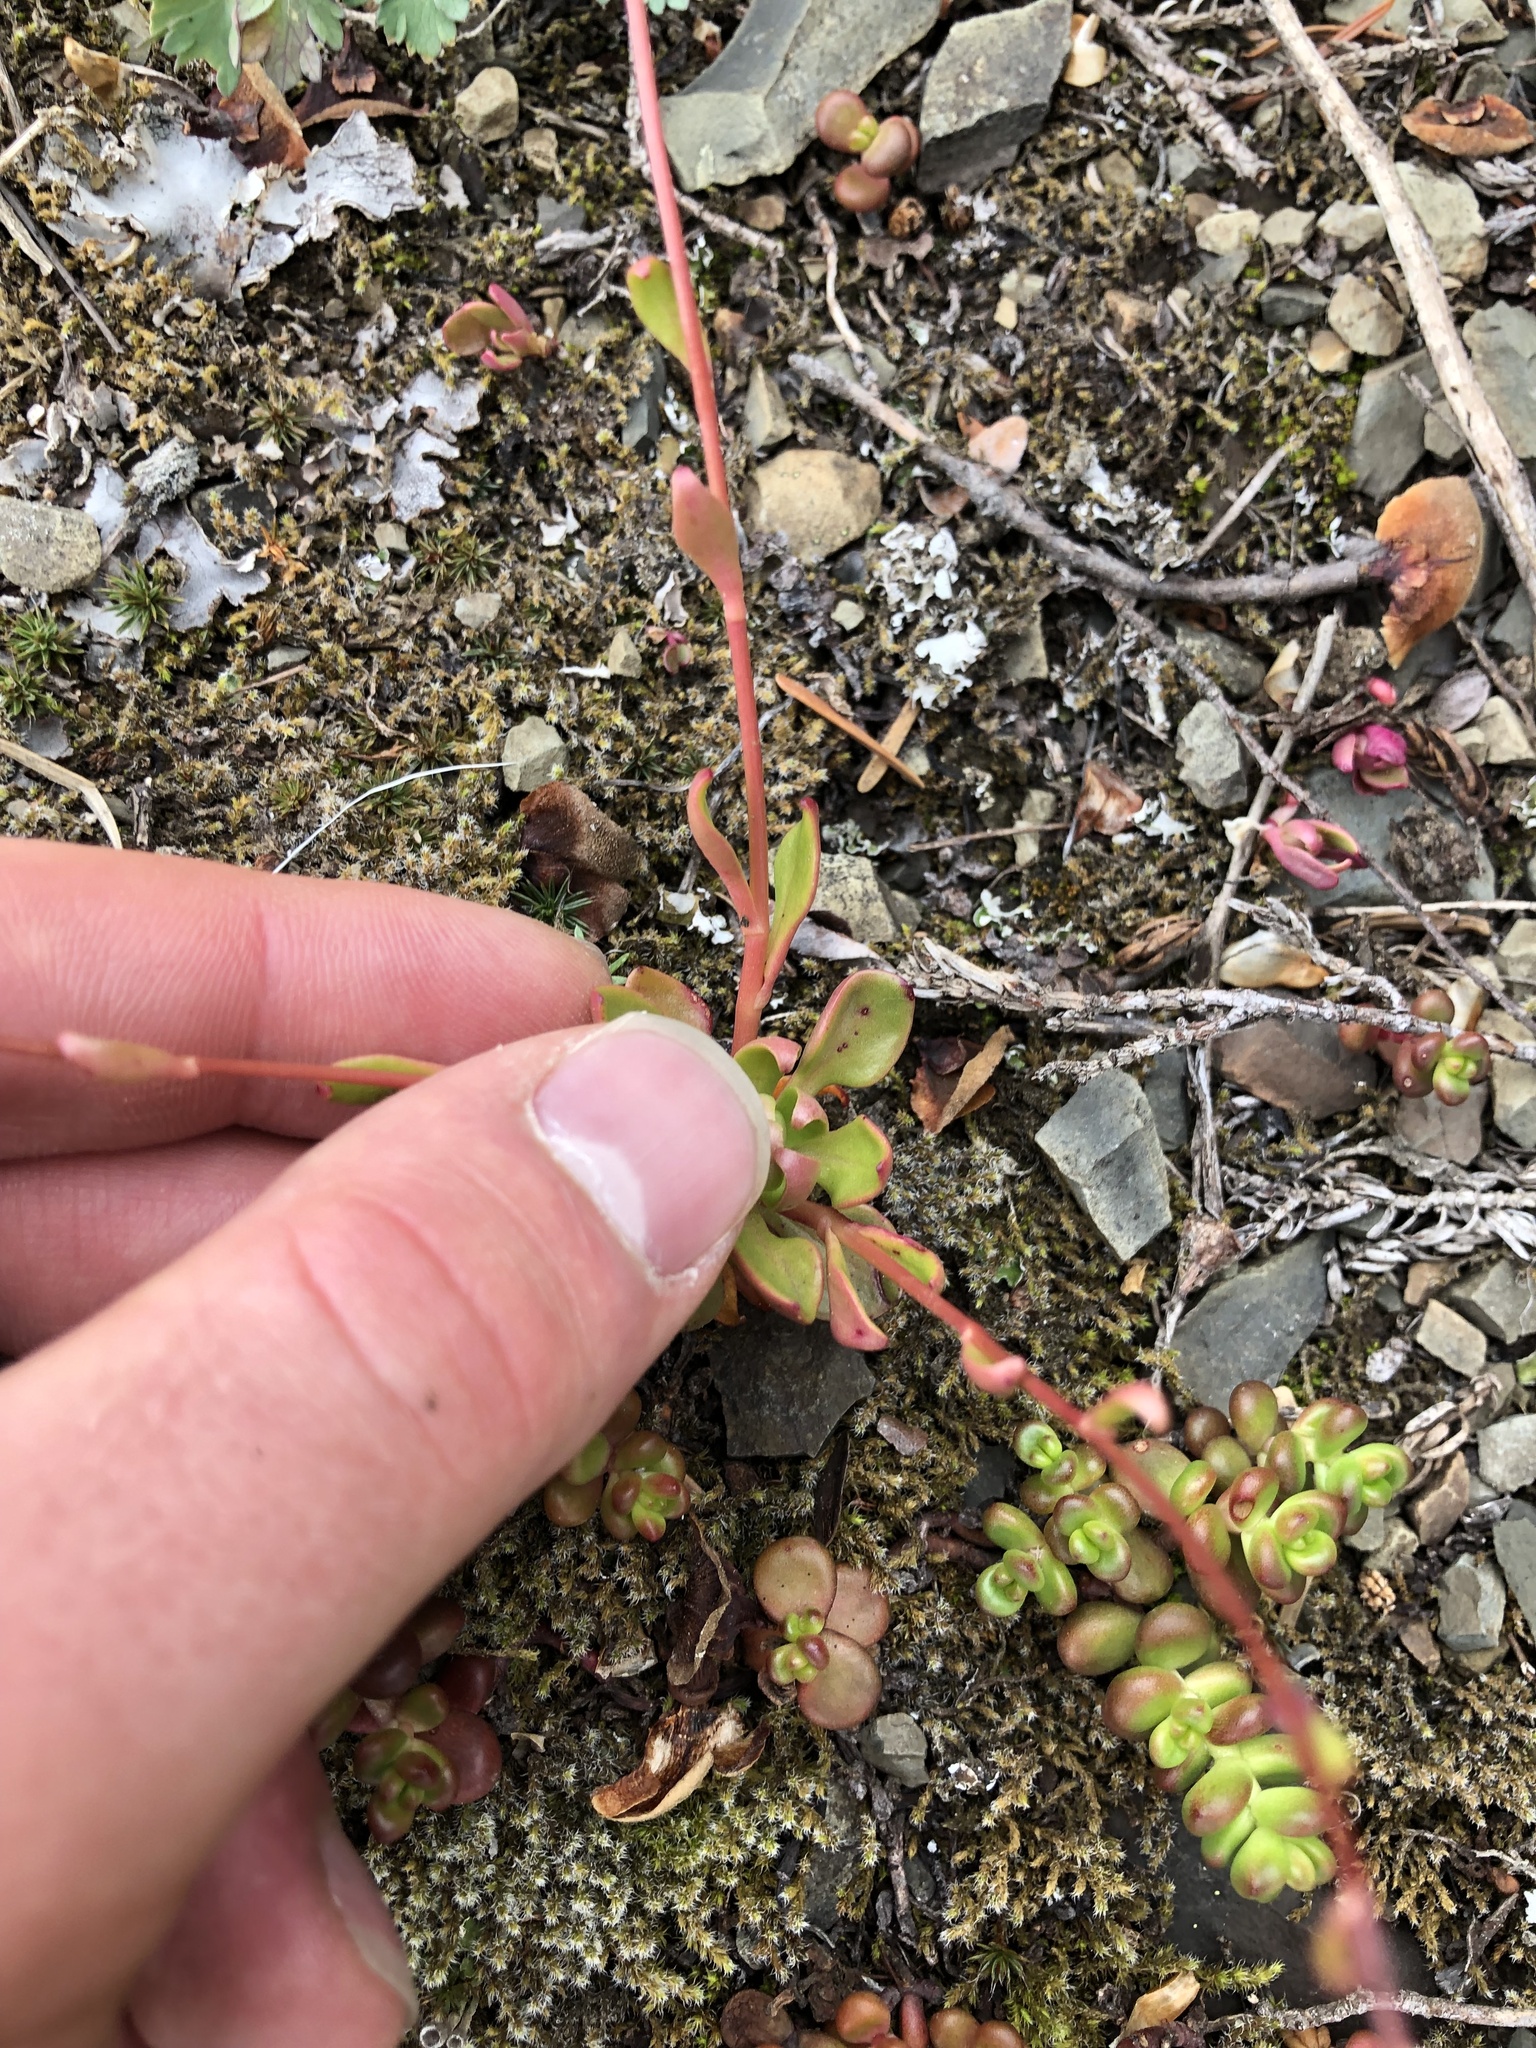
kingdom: Plantae
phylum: Tracheophyta
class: Magnoliopsida
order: Caryophyllales
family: Montiaceae
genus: Montia
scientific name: Montia parvifolia
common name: Small-leaved blinks
